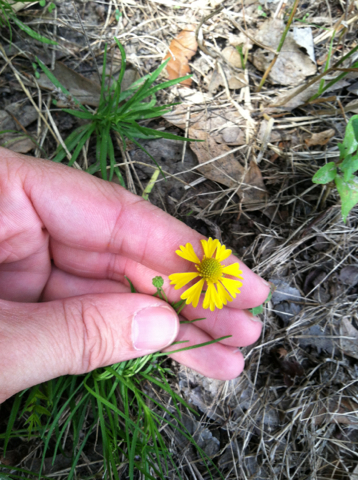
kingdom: Plantae
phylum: Tracheophyta
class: Magnoliopsida
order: Asterales
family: Asteraceae
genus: Helenium
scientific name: Helenium amarum
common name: Bitter sneezeweed
